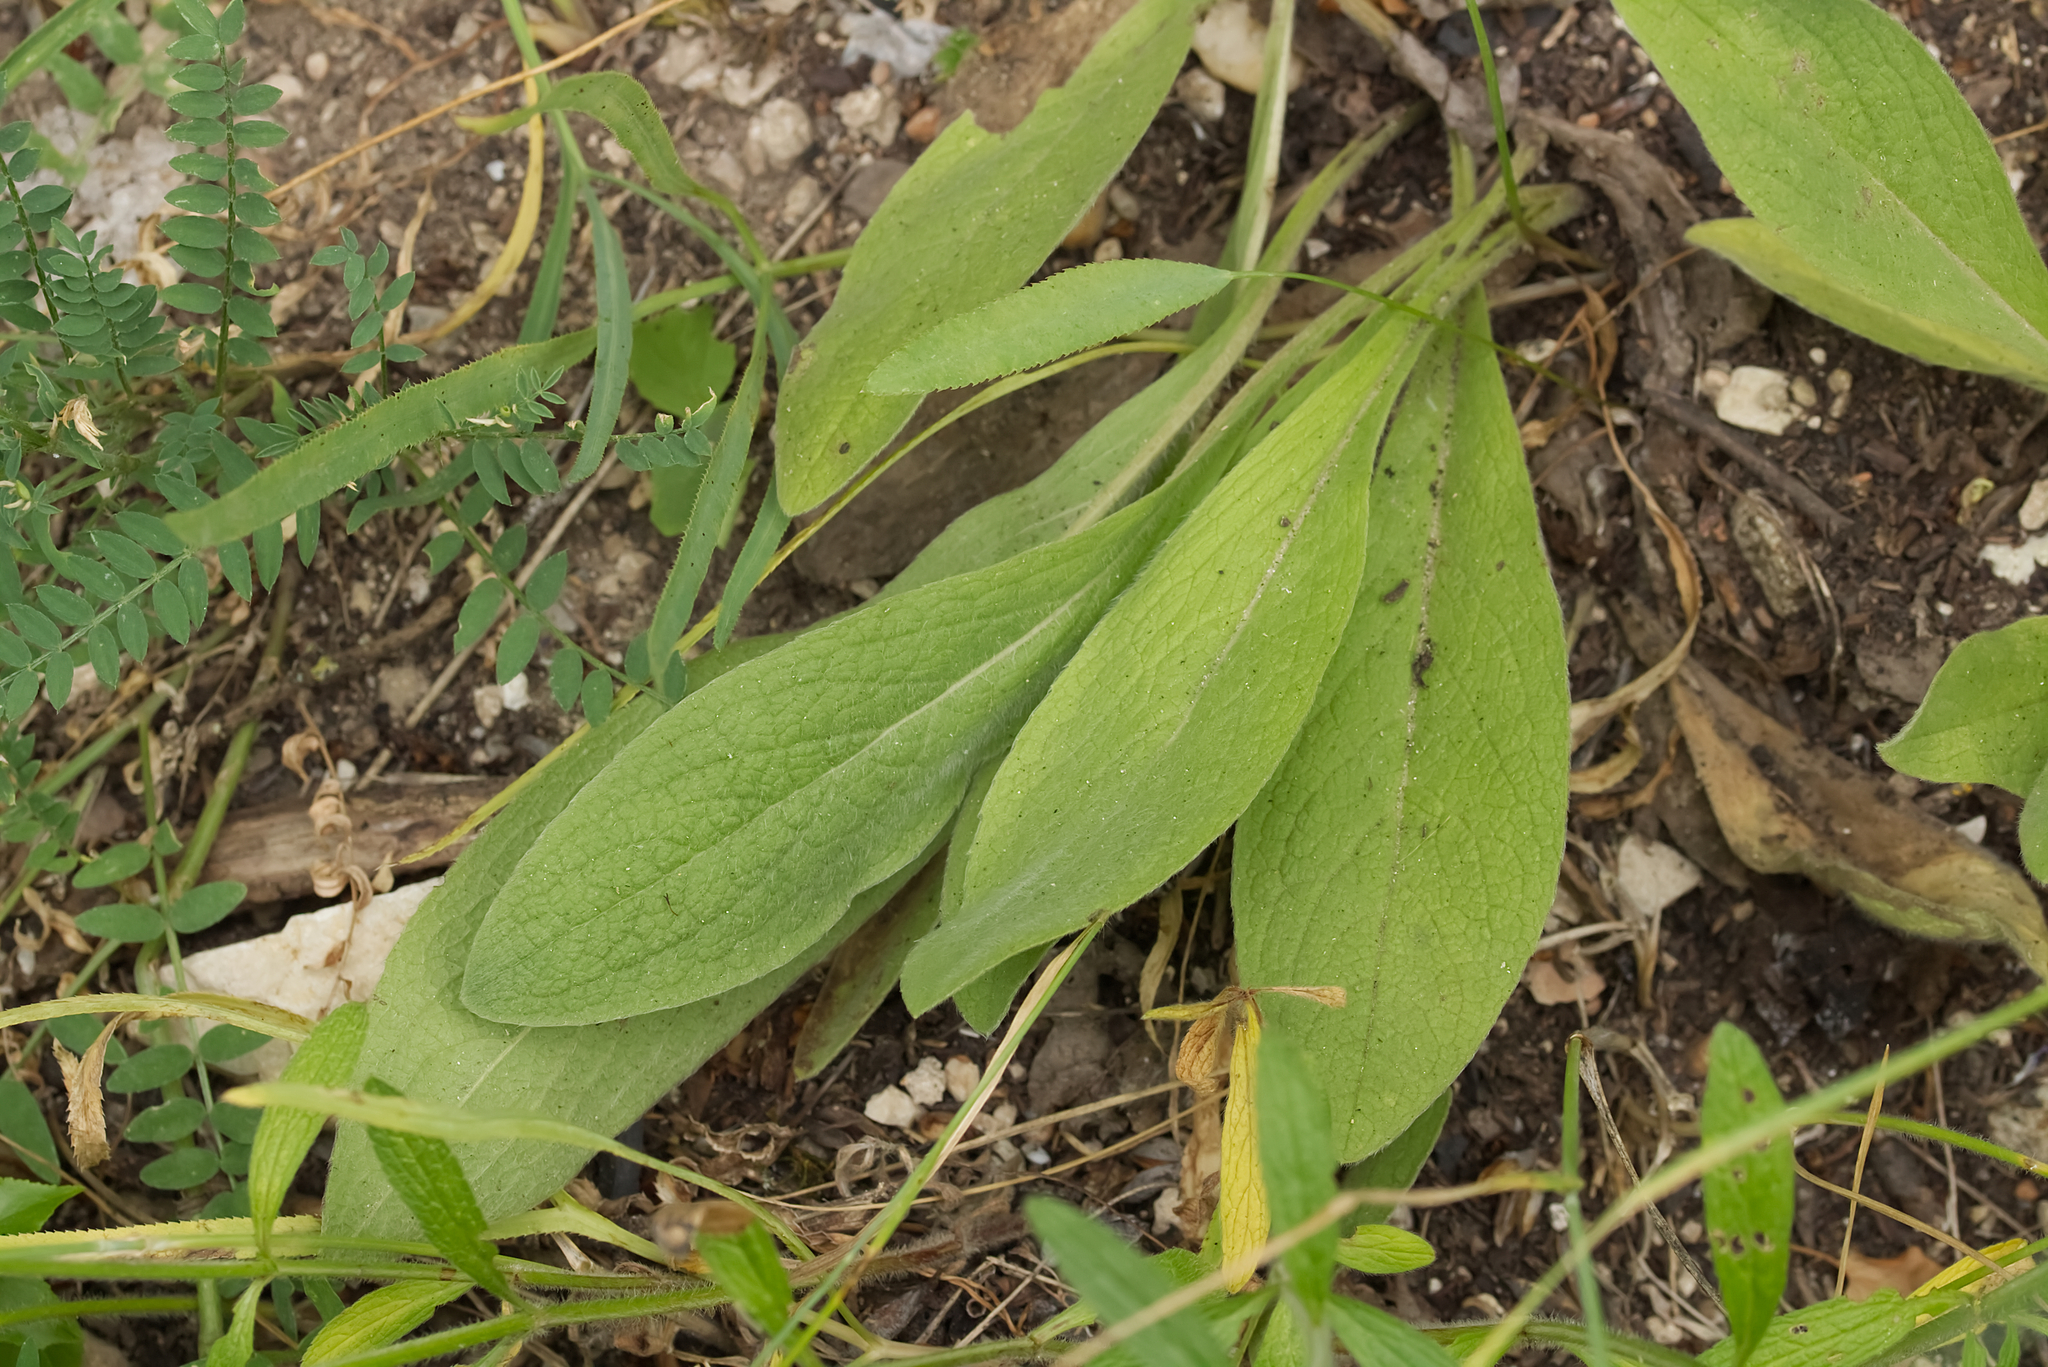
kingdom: Plantae
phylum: Tracheophyta
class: Magnoliopsida
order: Asterales
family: Asteraceae
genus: Pentanema
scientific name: Pentanema oculus-christi
